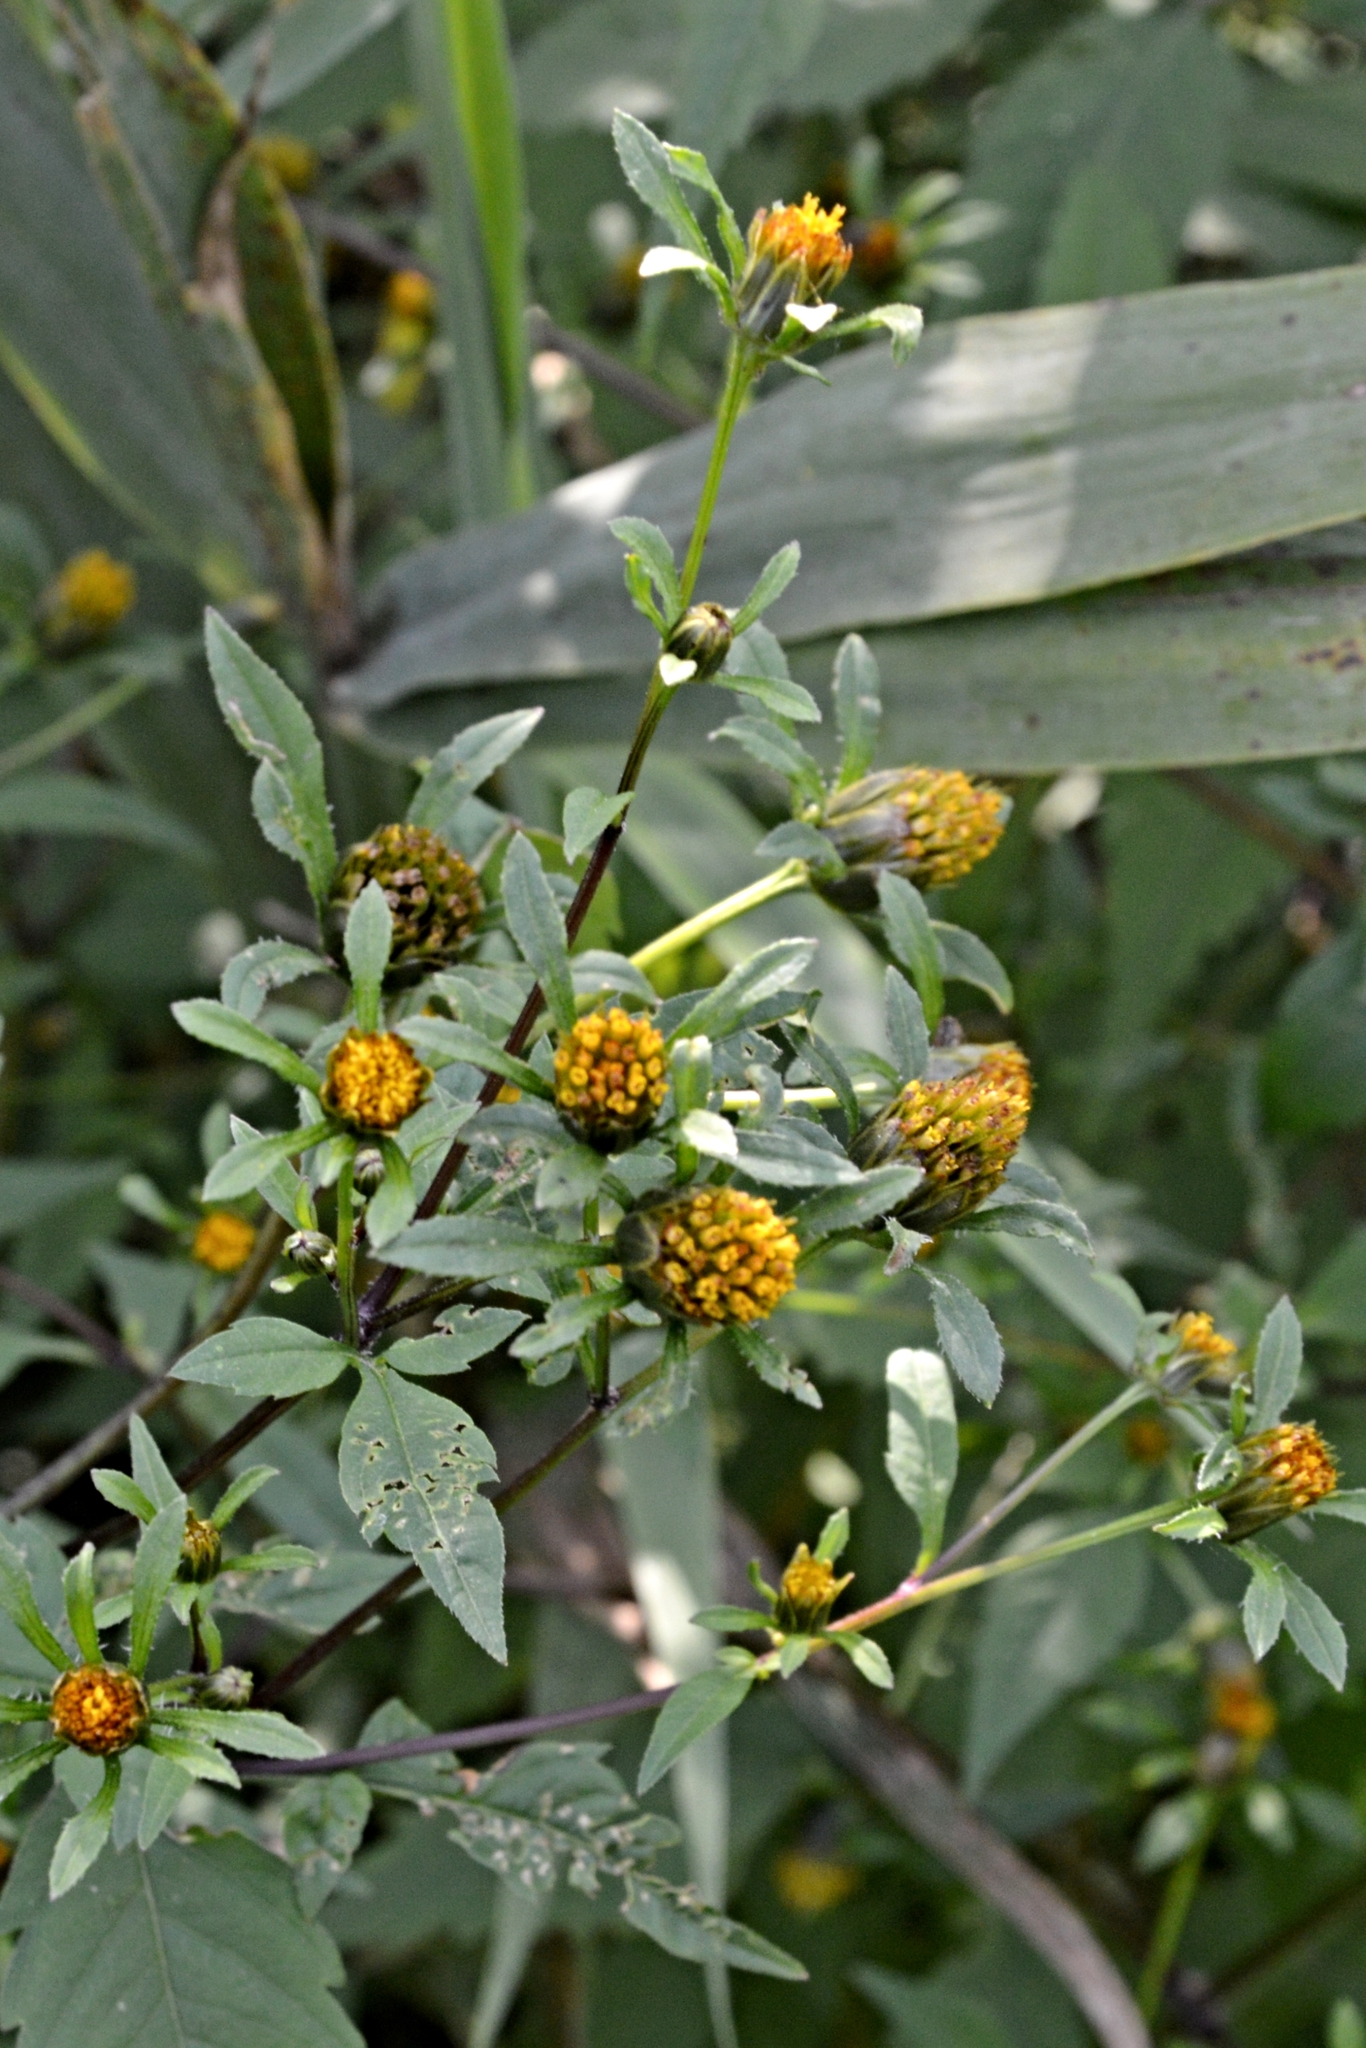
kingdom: Plantae
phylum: Tracheophyta
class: Magnoliopsida
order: Asterales
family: Asteraceae
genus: Bidens
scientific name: Bidens frondosa
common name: Beggarticks
